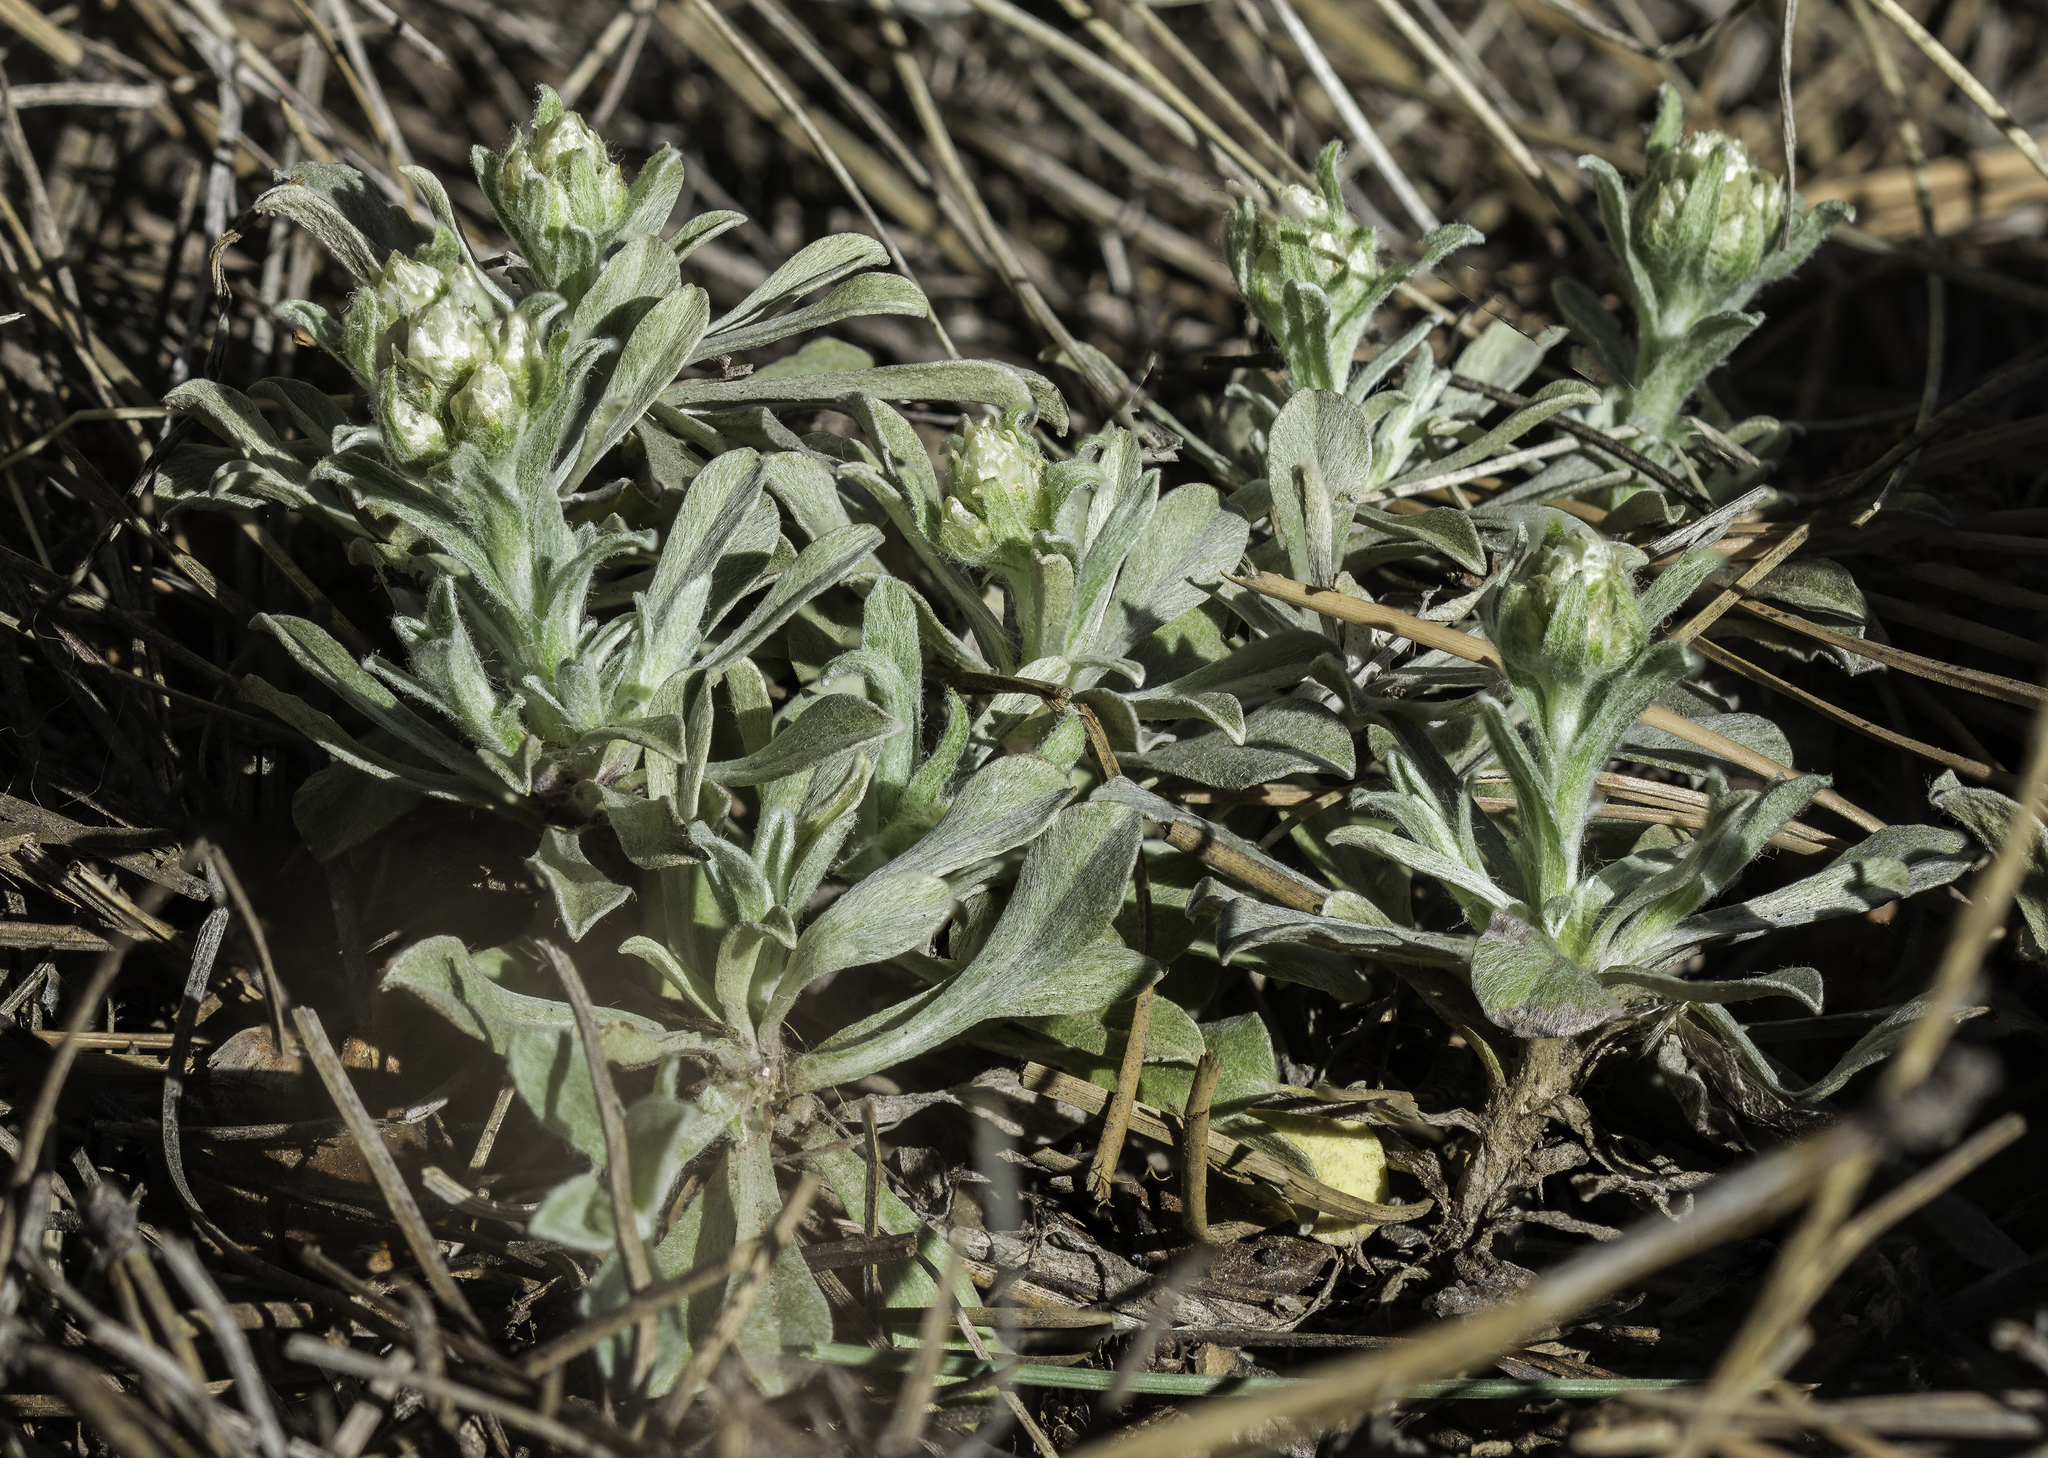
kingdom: Plantae
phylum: Tracheophyta
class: Magnoliopsida
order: Asterales
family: Asteraceae
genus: Antennaria
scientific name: Antennaria parvifolia
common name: Nuttall's pussytoes
